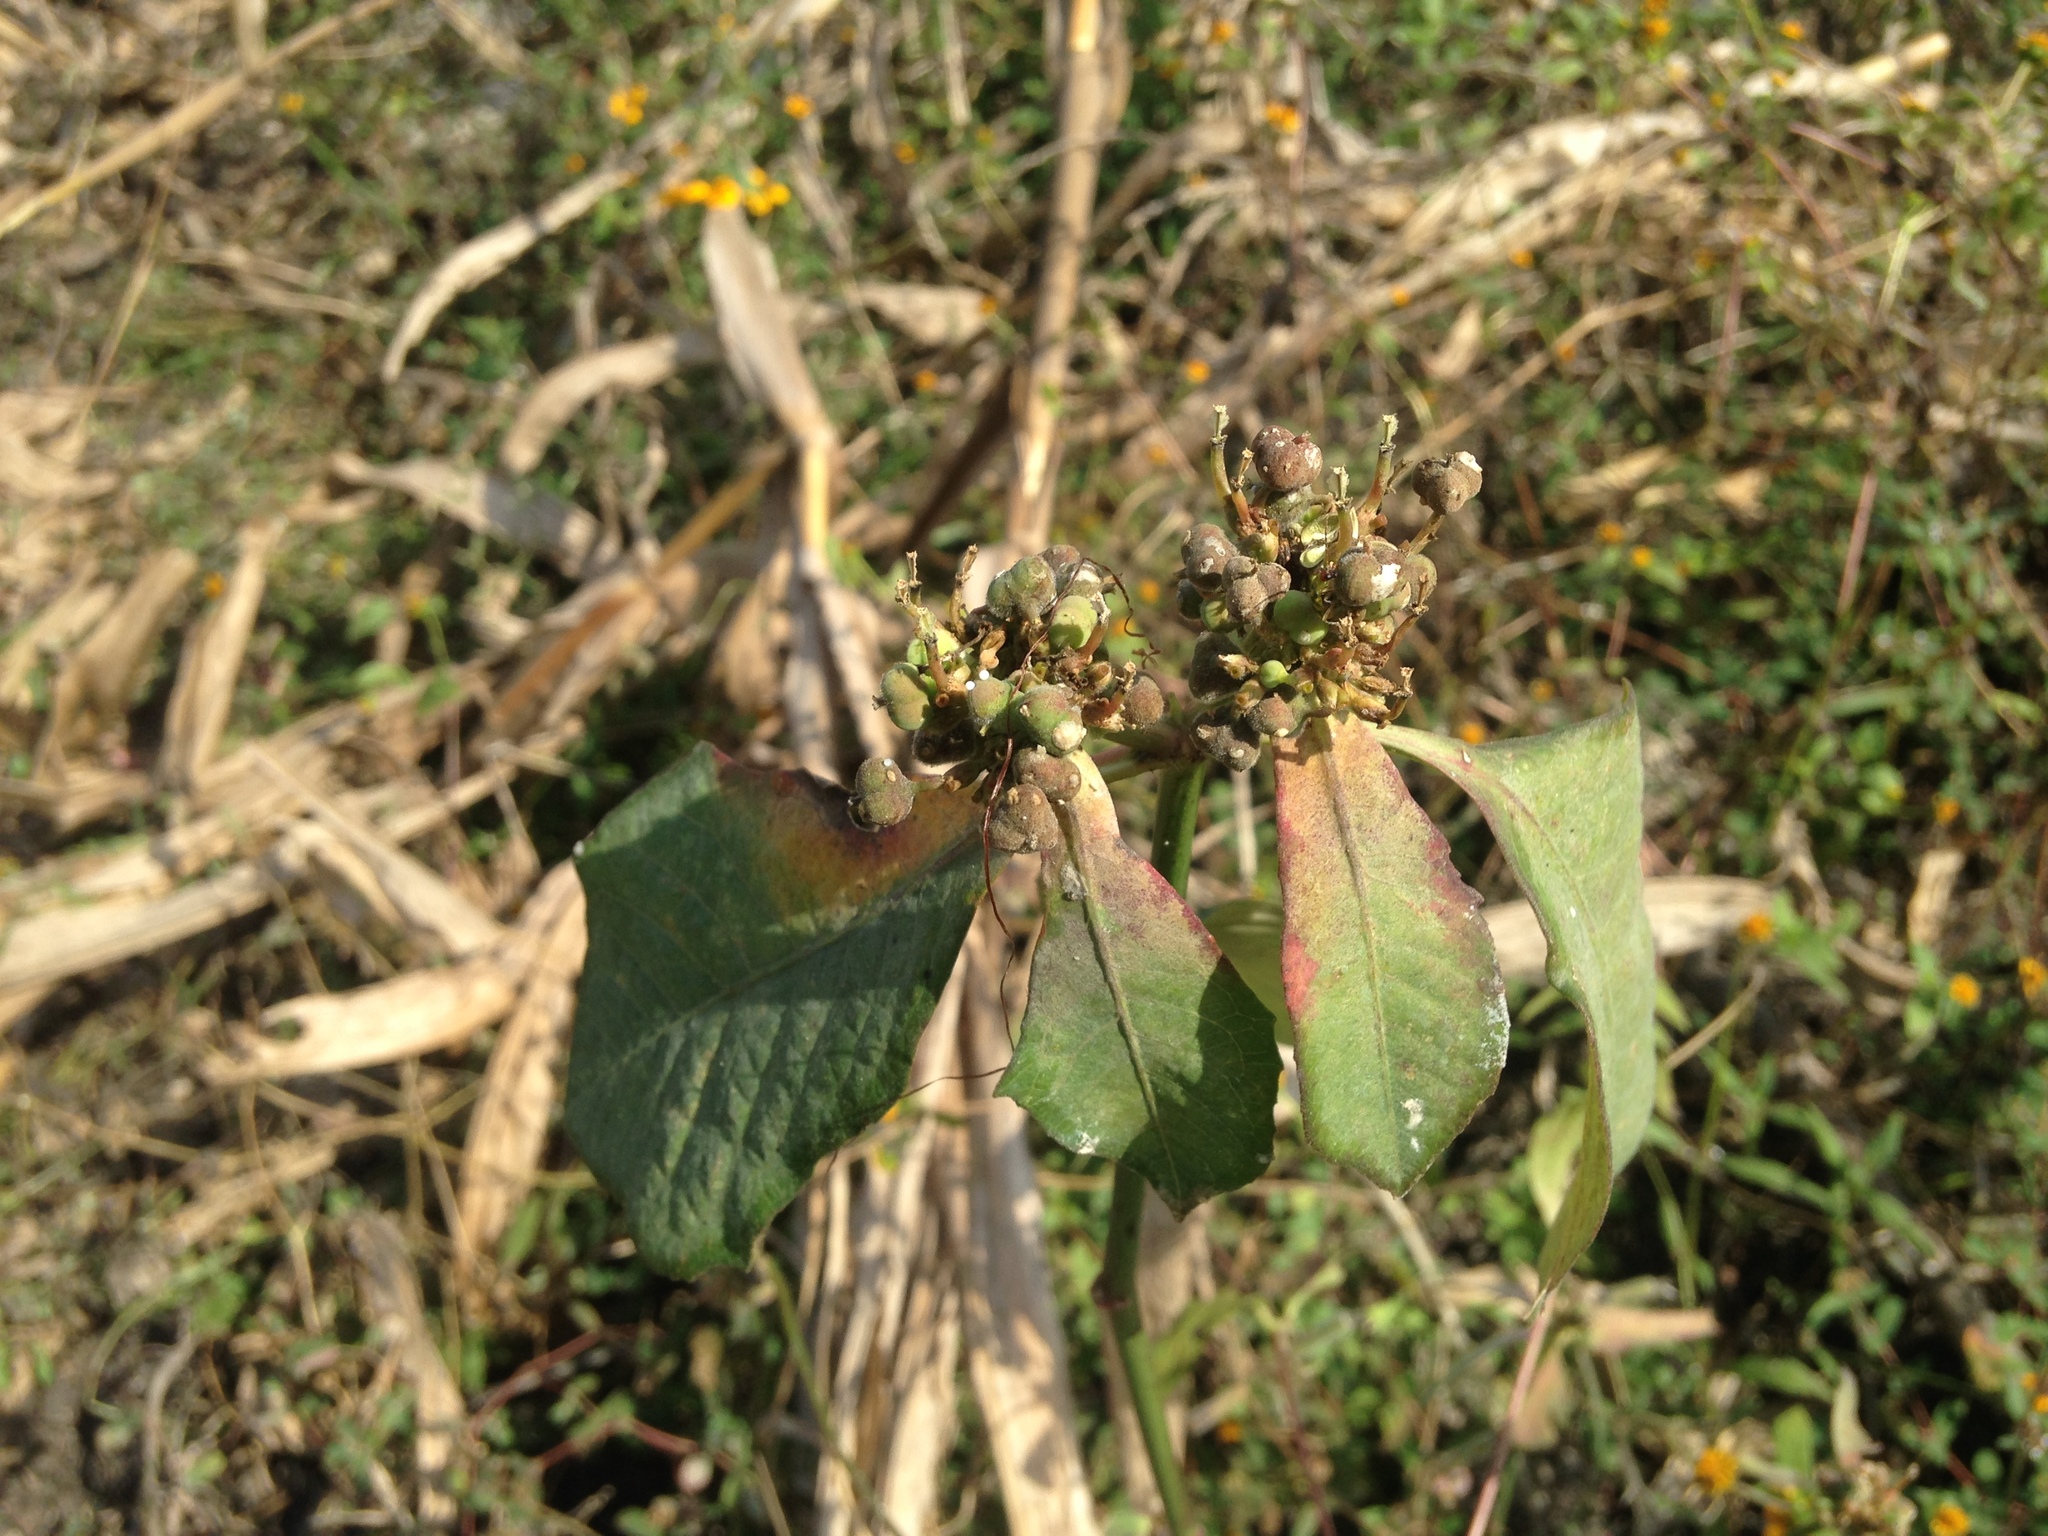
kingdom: Plantae
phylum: Tracheophyta
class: Magnoliopsida
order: Malpighiales
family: Euphorbiaceae
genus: Euphorbia
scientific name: Euphorbia heterophylla
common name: Mexican fireplant
